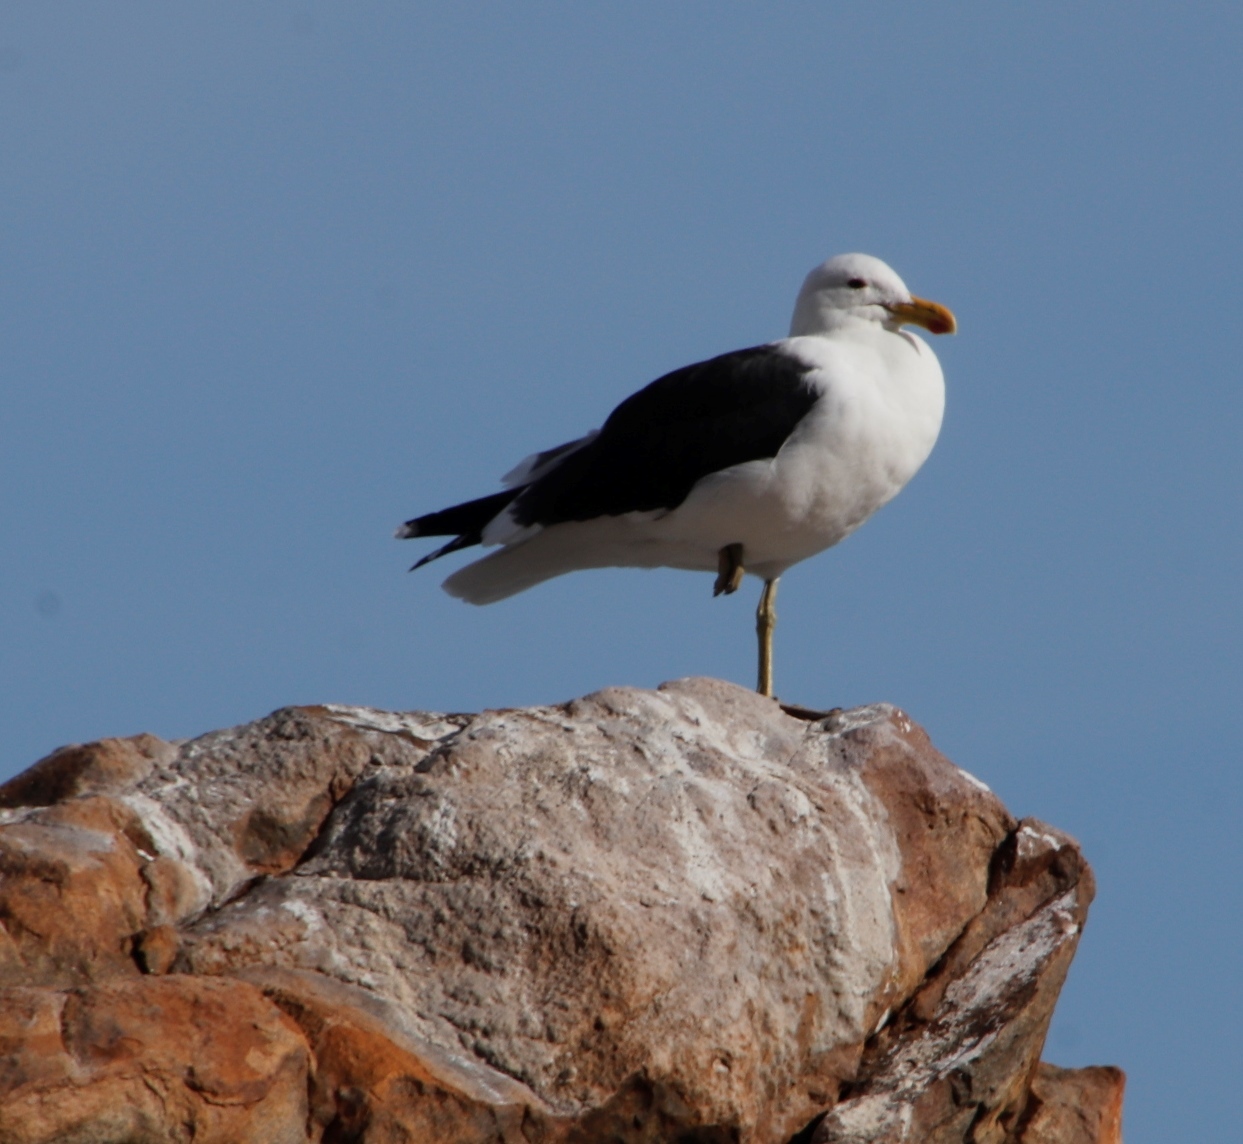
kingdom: Animalia
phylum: Chordata
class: Aves
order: Charadriiformes
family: Laridae
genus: Larus
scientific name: Larus dominicanus
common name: Kelp gull
